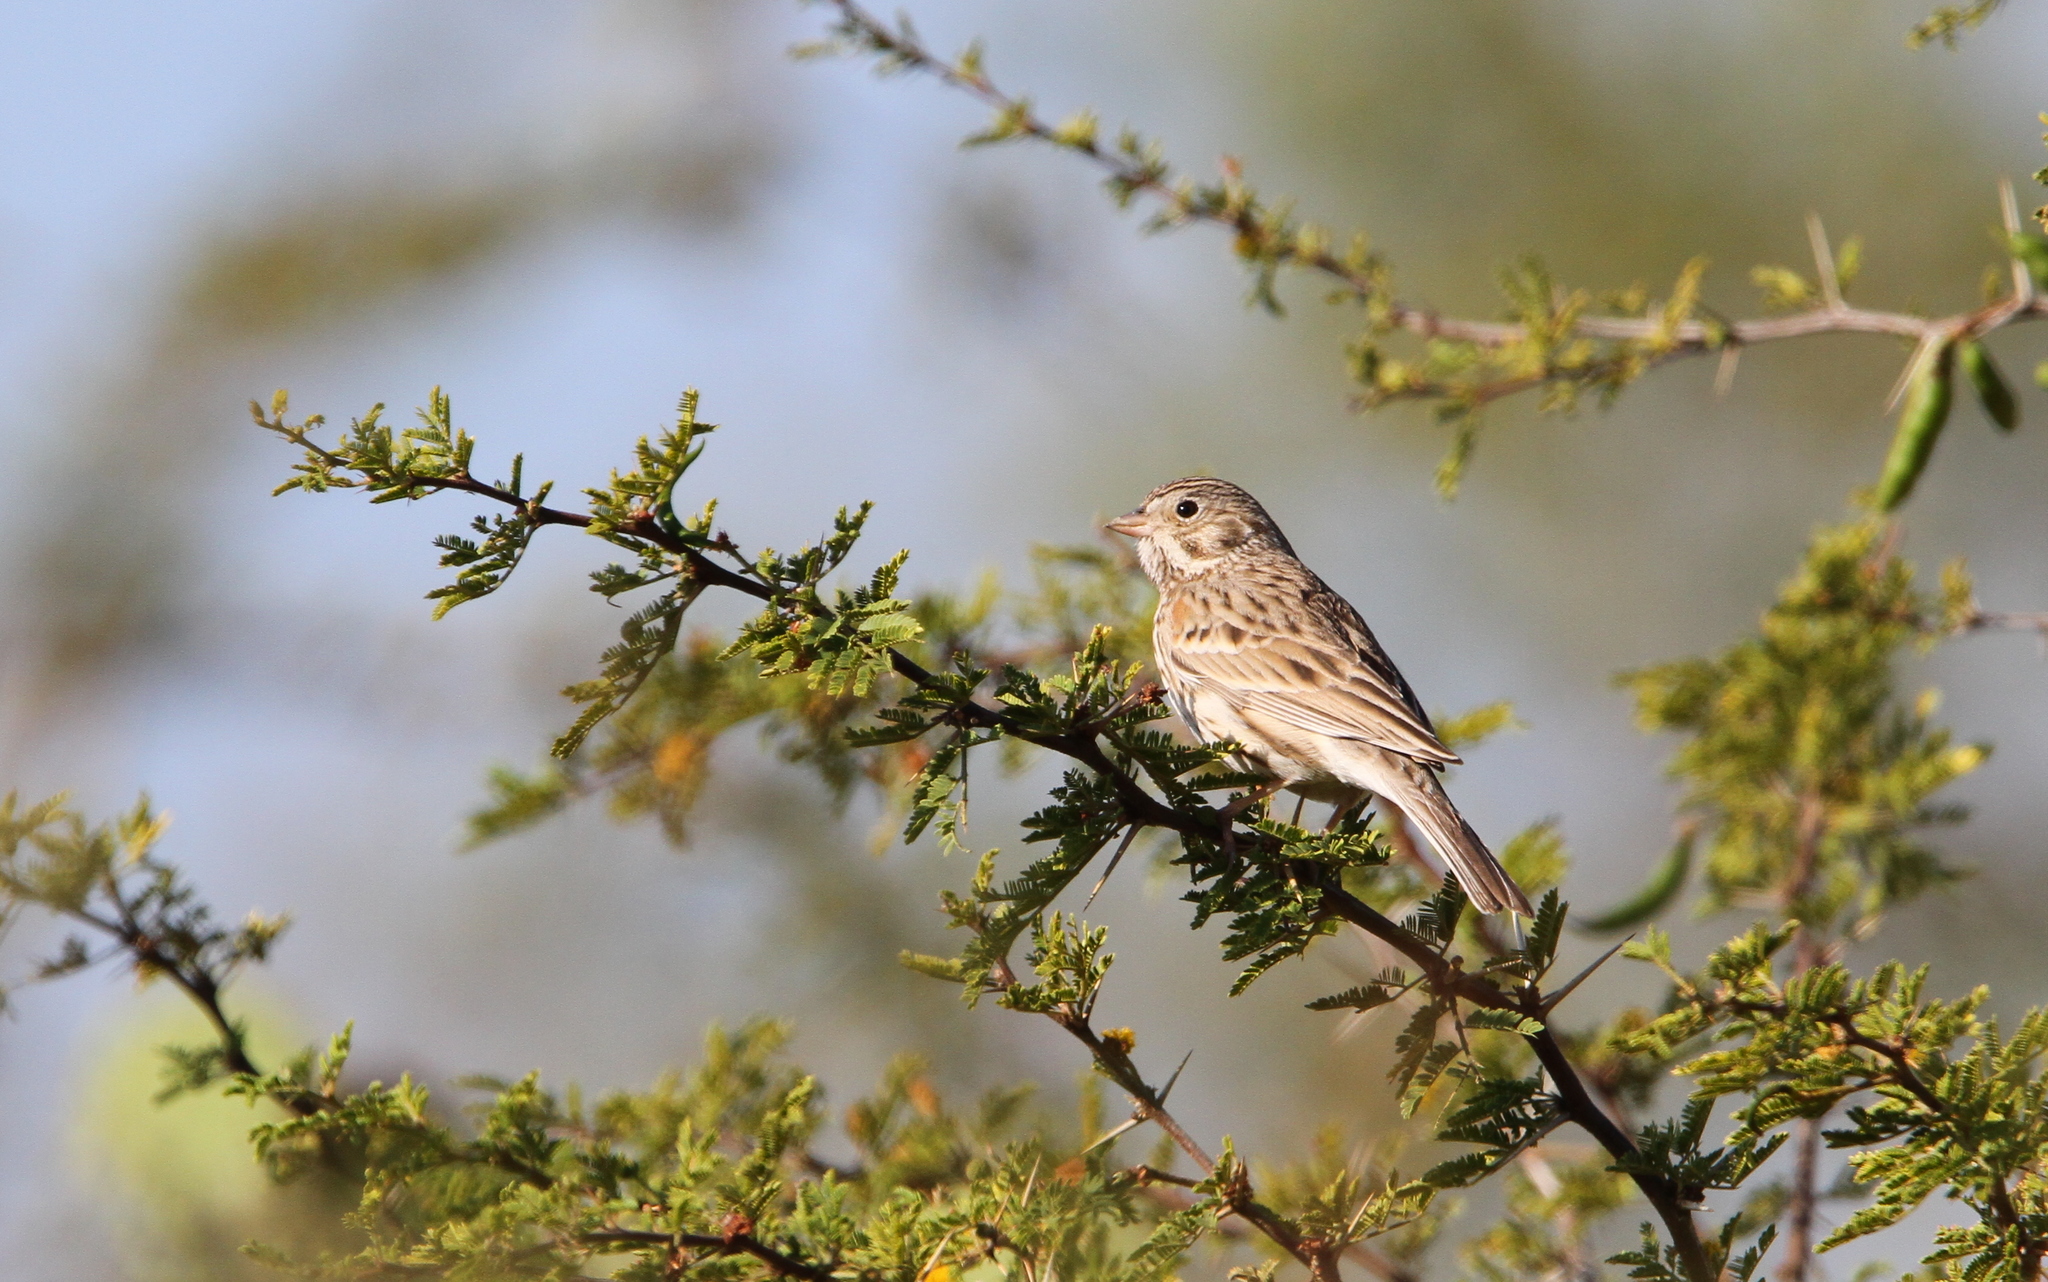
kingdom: Animalia
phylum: Chordata
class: Aves
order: Passeriformes
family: Passerellidae
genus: Pooecetes
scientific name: Pooecetes gramineus
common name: Vesper sparrow
